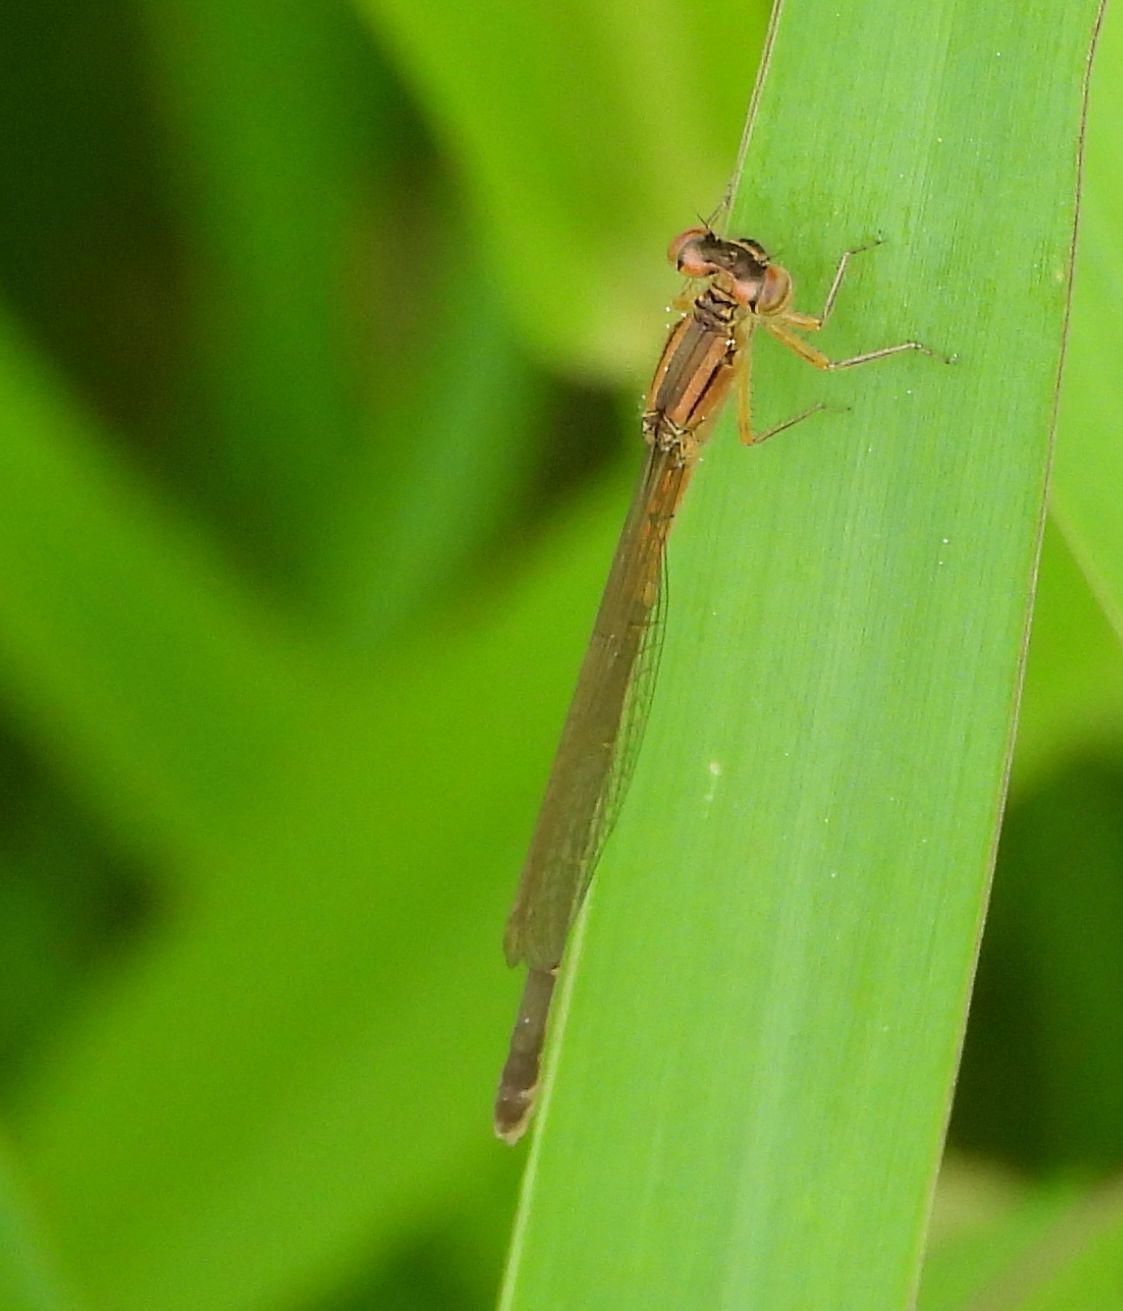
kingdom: Animalia
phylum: Arthropoda
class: Insecta
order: Odonata
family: Coenagrionidae
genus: Ischnura
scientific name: Ischnura verticalis
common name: Eastern forktail
